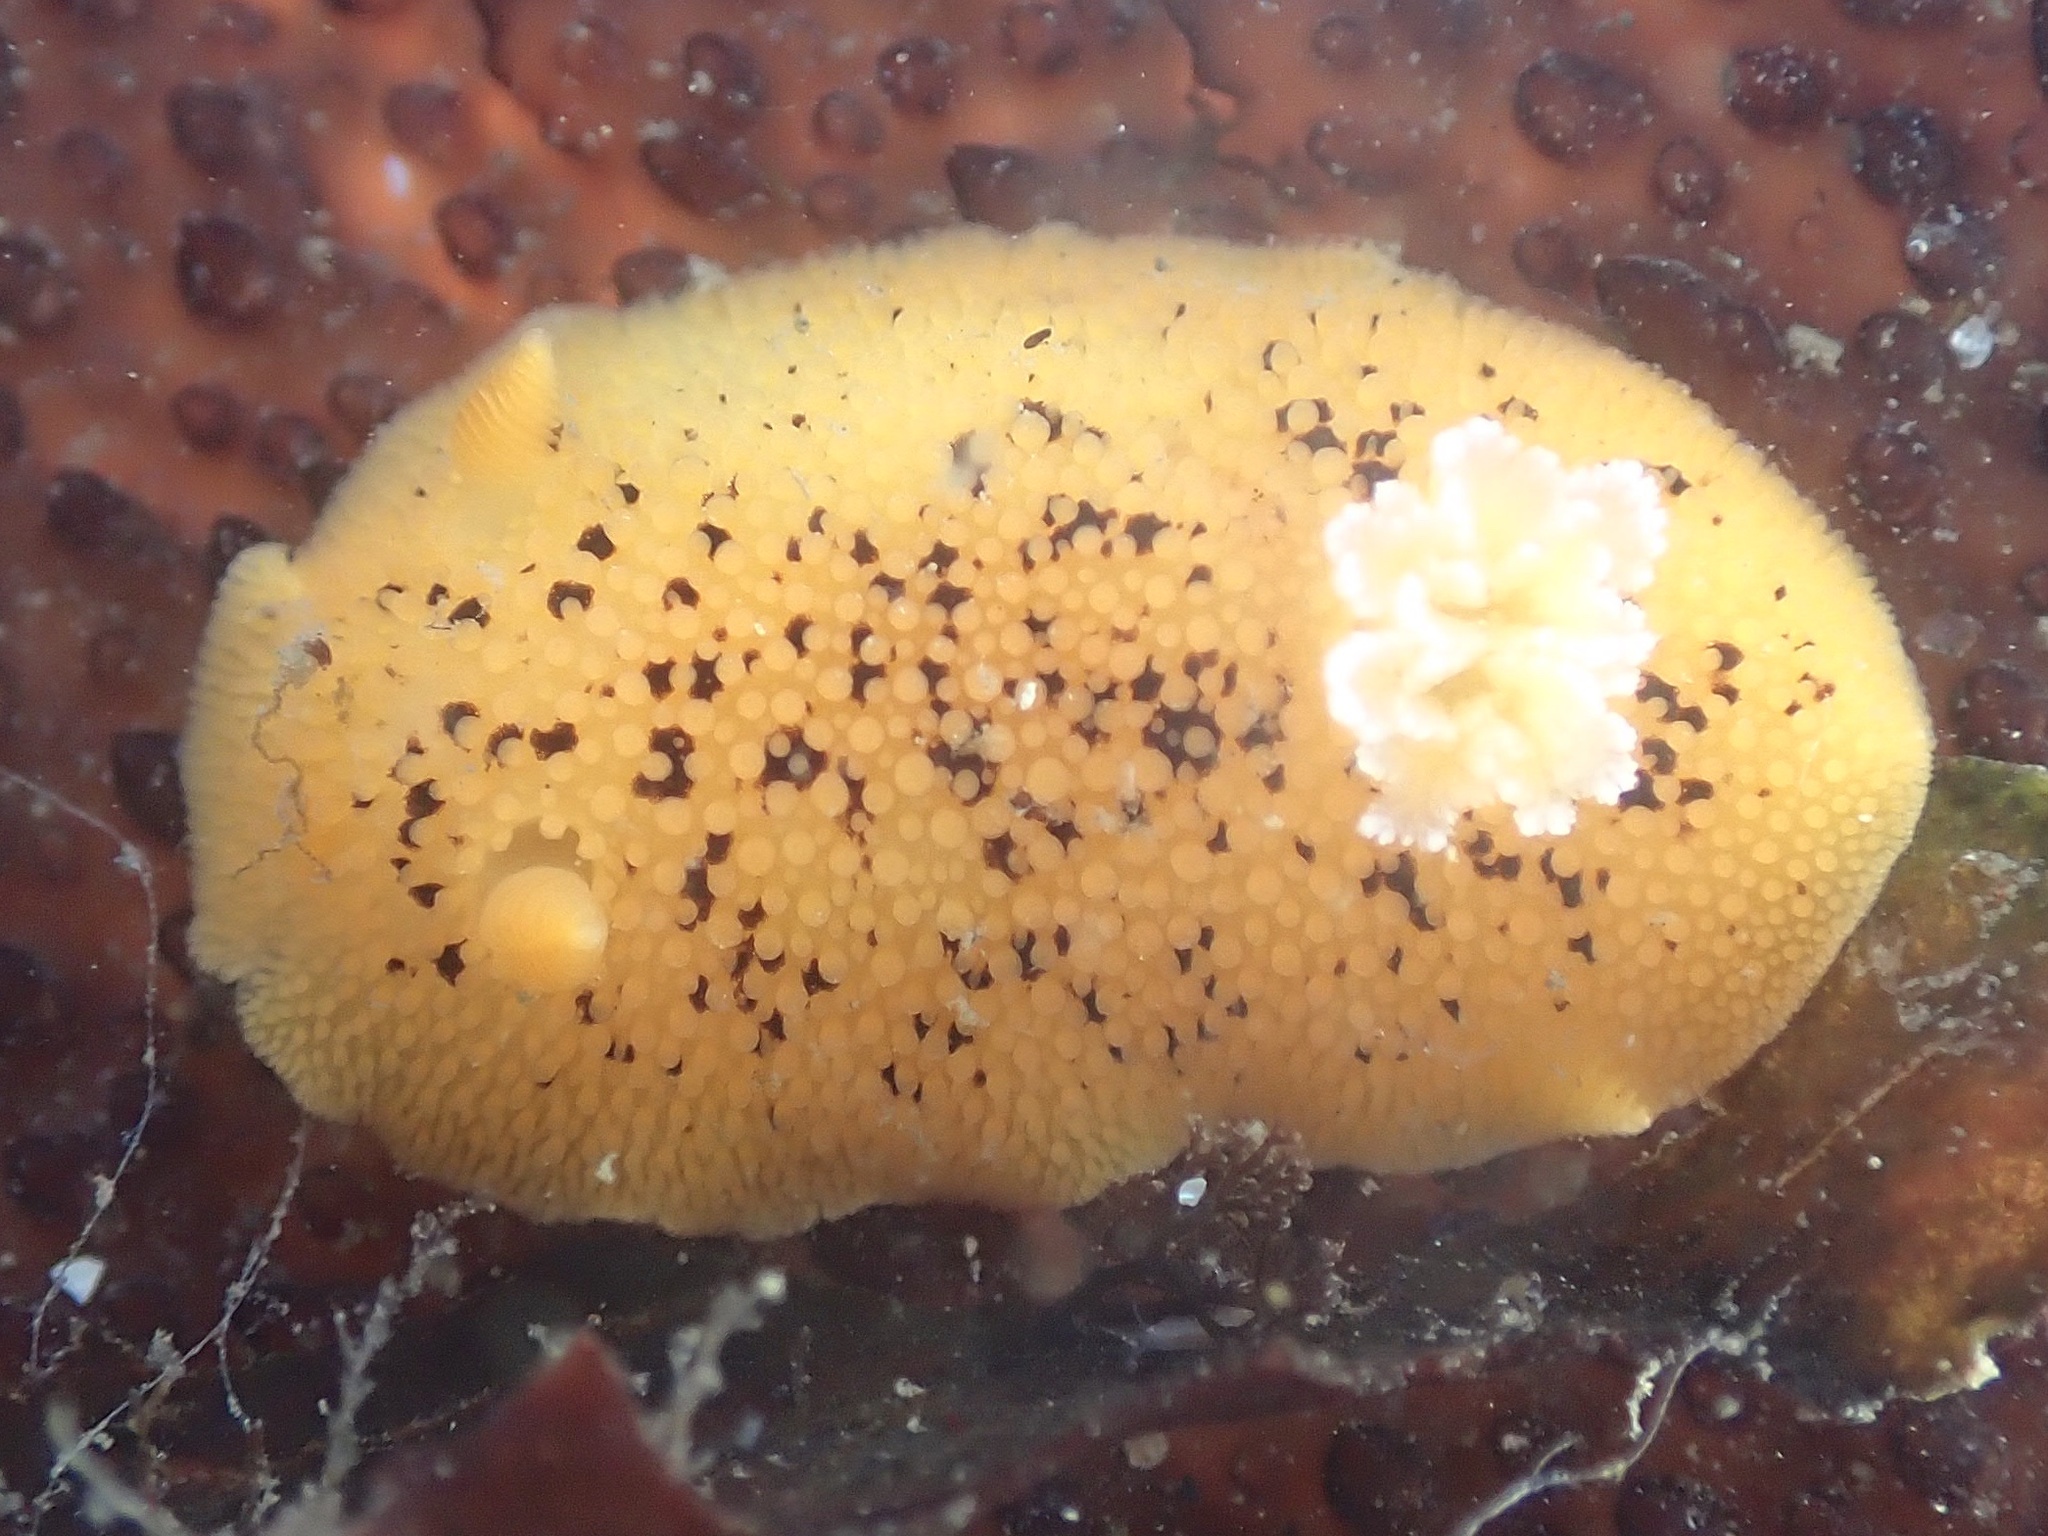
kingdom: Animalia
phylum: Mollusca
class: Gastropoda
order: Nudibranchia
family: Discodorididae
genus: Peltodoris
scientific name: Peltodoris nobilis
